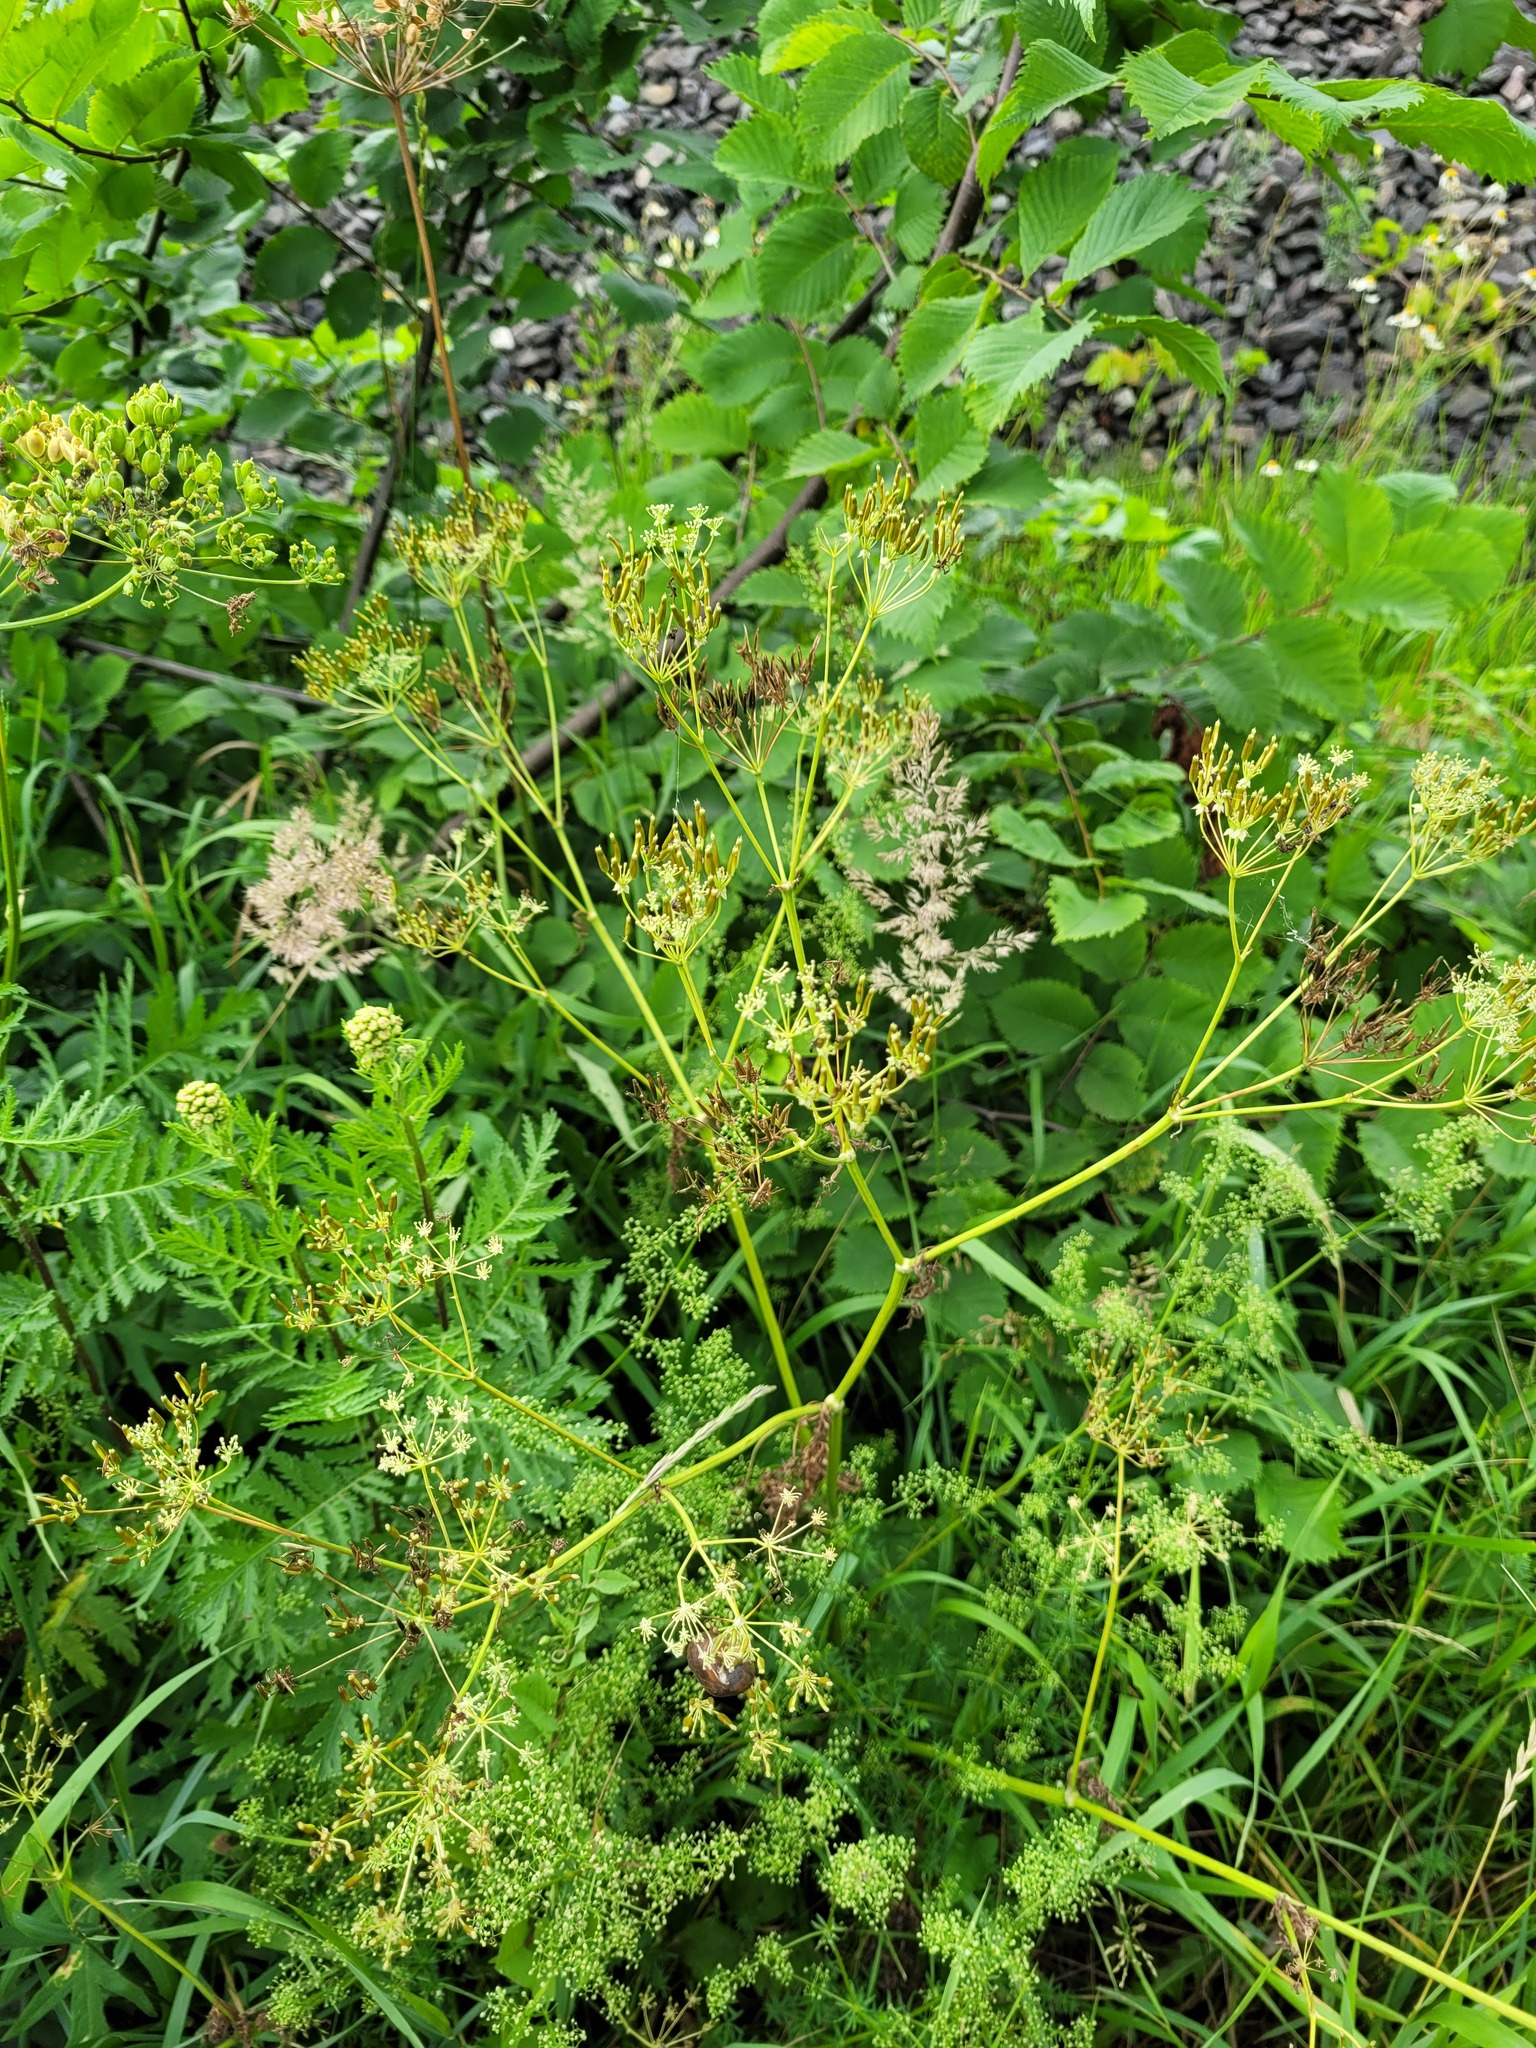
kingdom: Plantae
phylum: Tracheophyta
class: Magnoliopsida
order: Apiales
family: Apiaceae
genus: Anthriscus
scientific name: Anthriscus sylvestris
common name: Cow parsley
